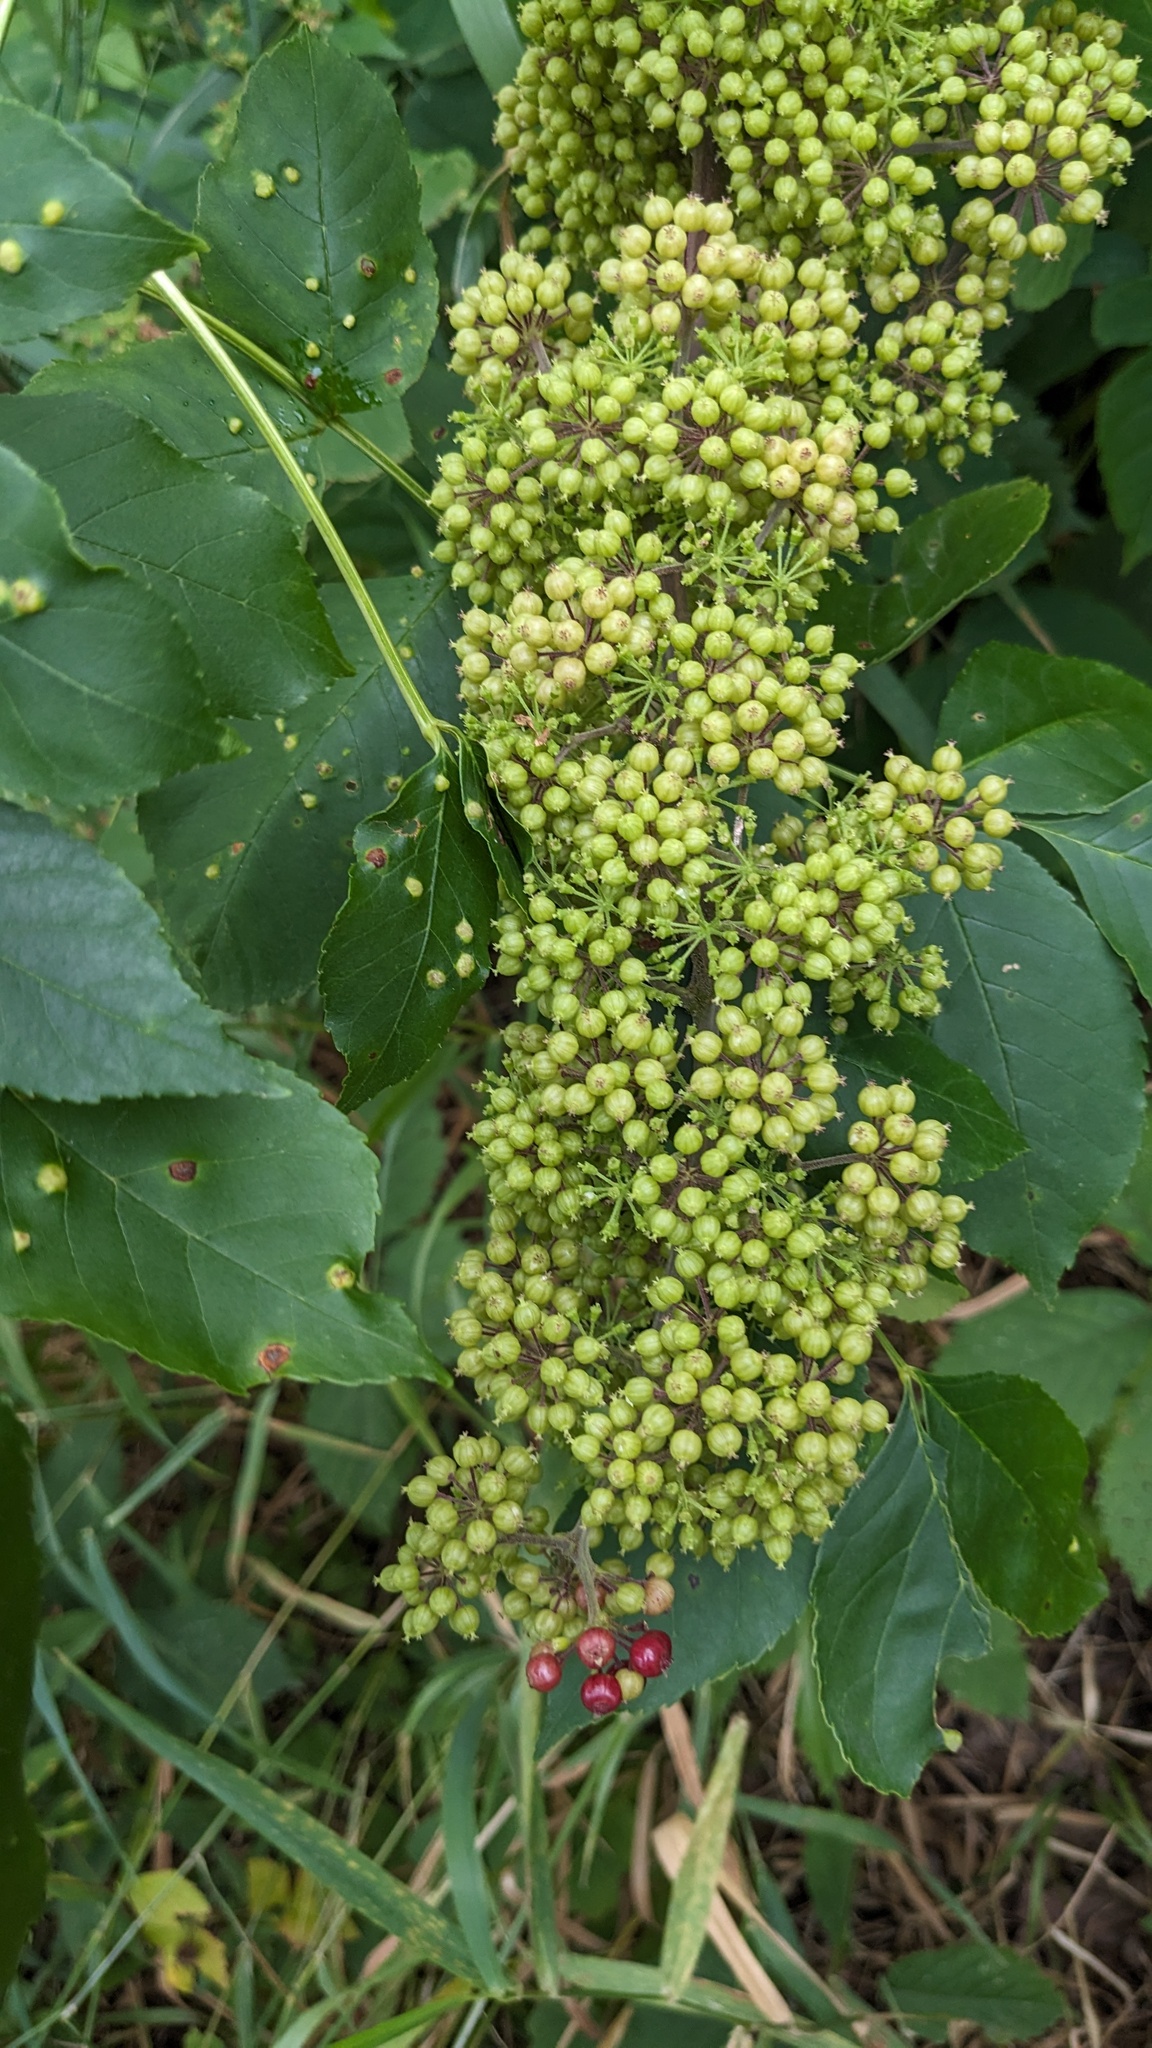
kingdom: Plantae
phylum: Tracheophyta
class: Magnoliopsida
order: Apiales
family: Araliaceae
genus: Aralia
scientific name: Aralia racemosa
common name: American-spikenard
